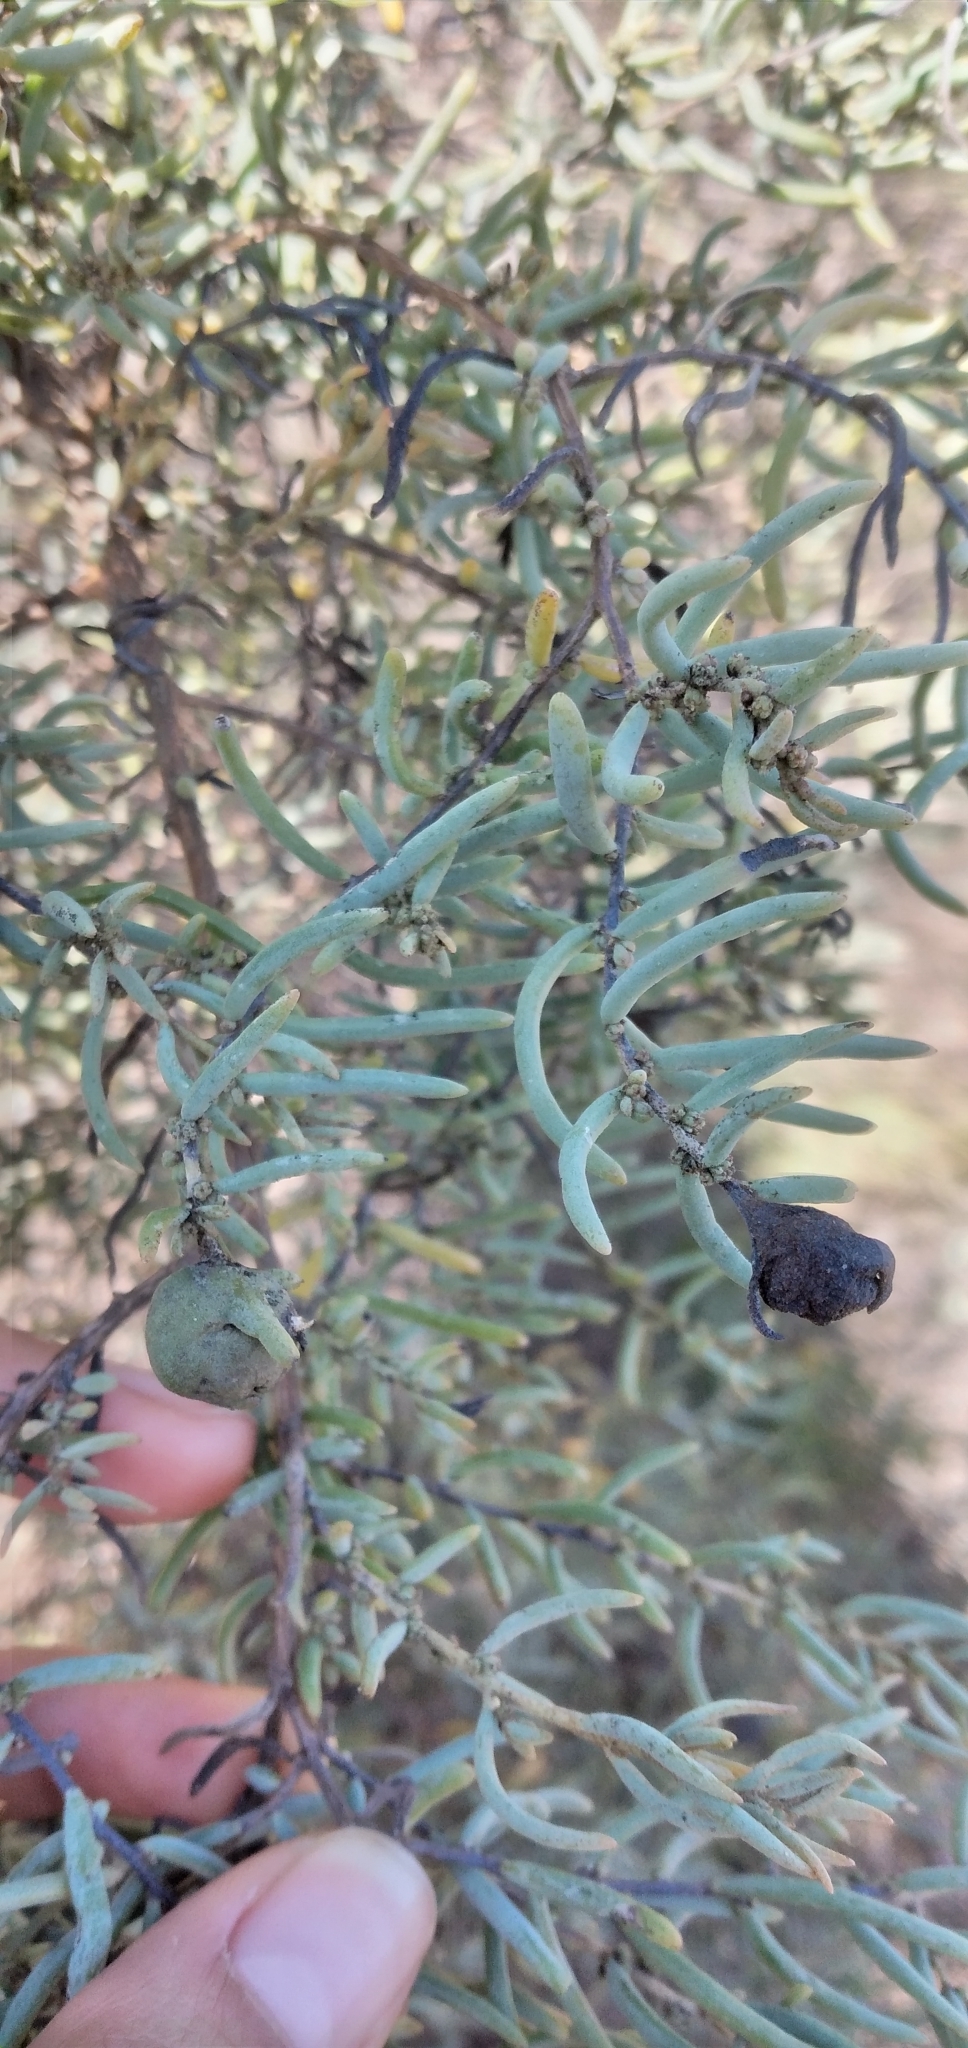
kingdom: Plantae
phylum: Tracheophyta
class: Magnoliopsida
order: Caryophyllales
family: Amaranthaceae
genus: Suaeda
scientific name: Suaeda divaricata
